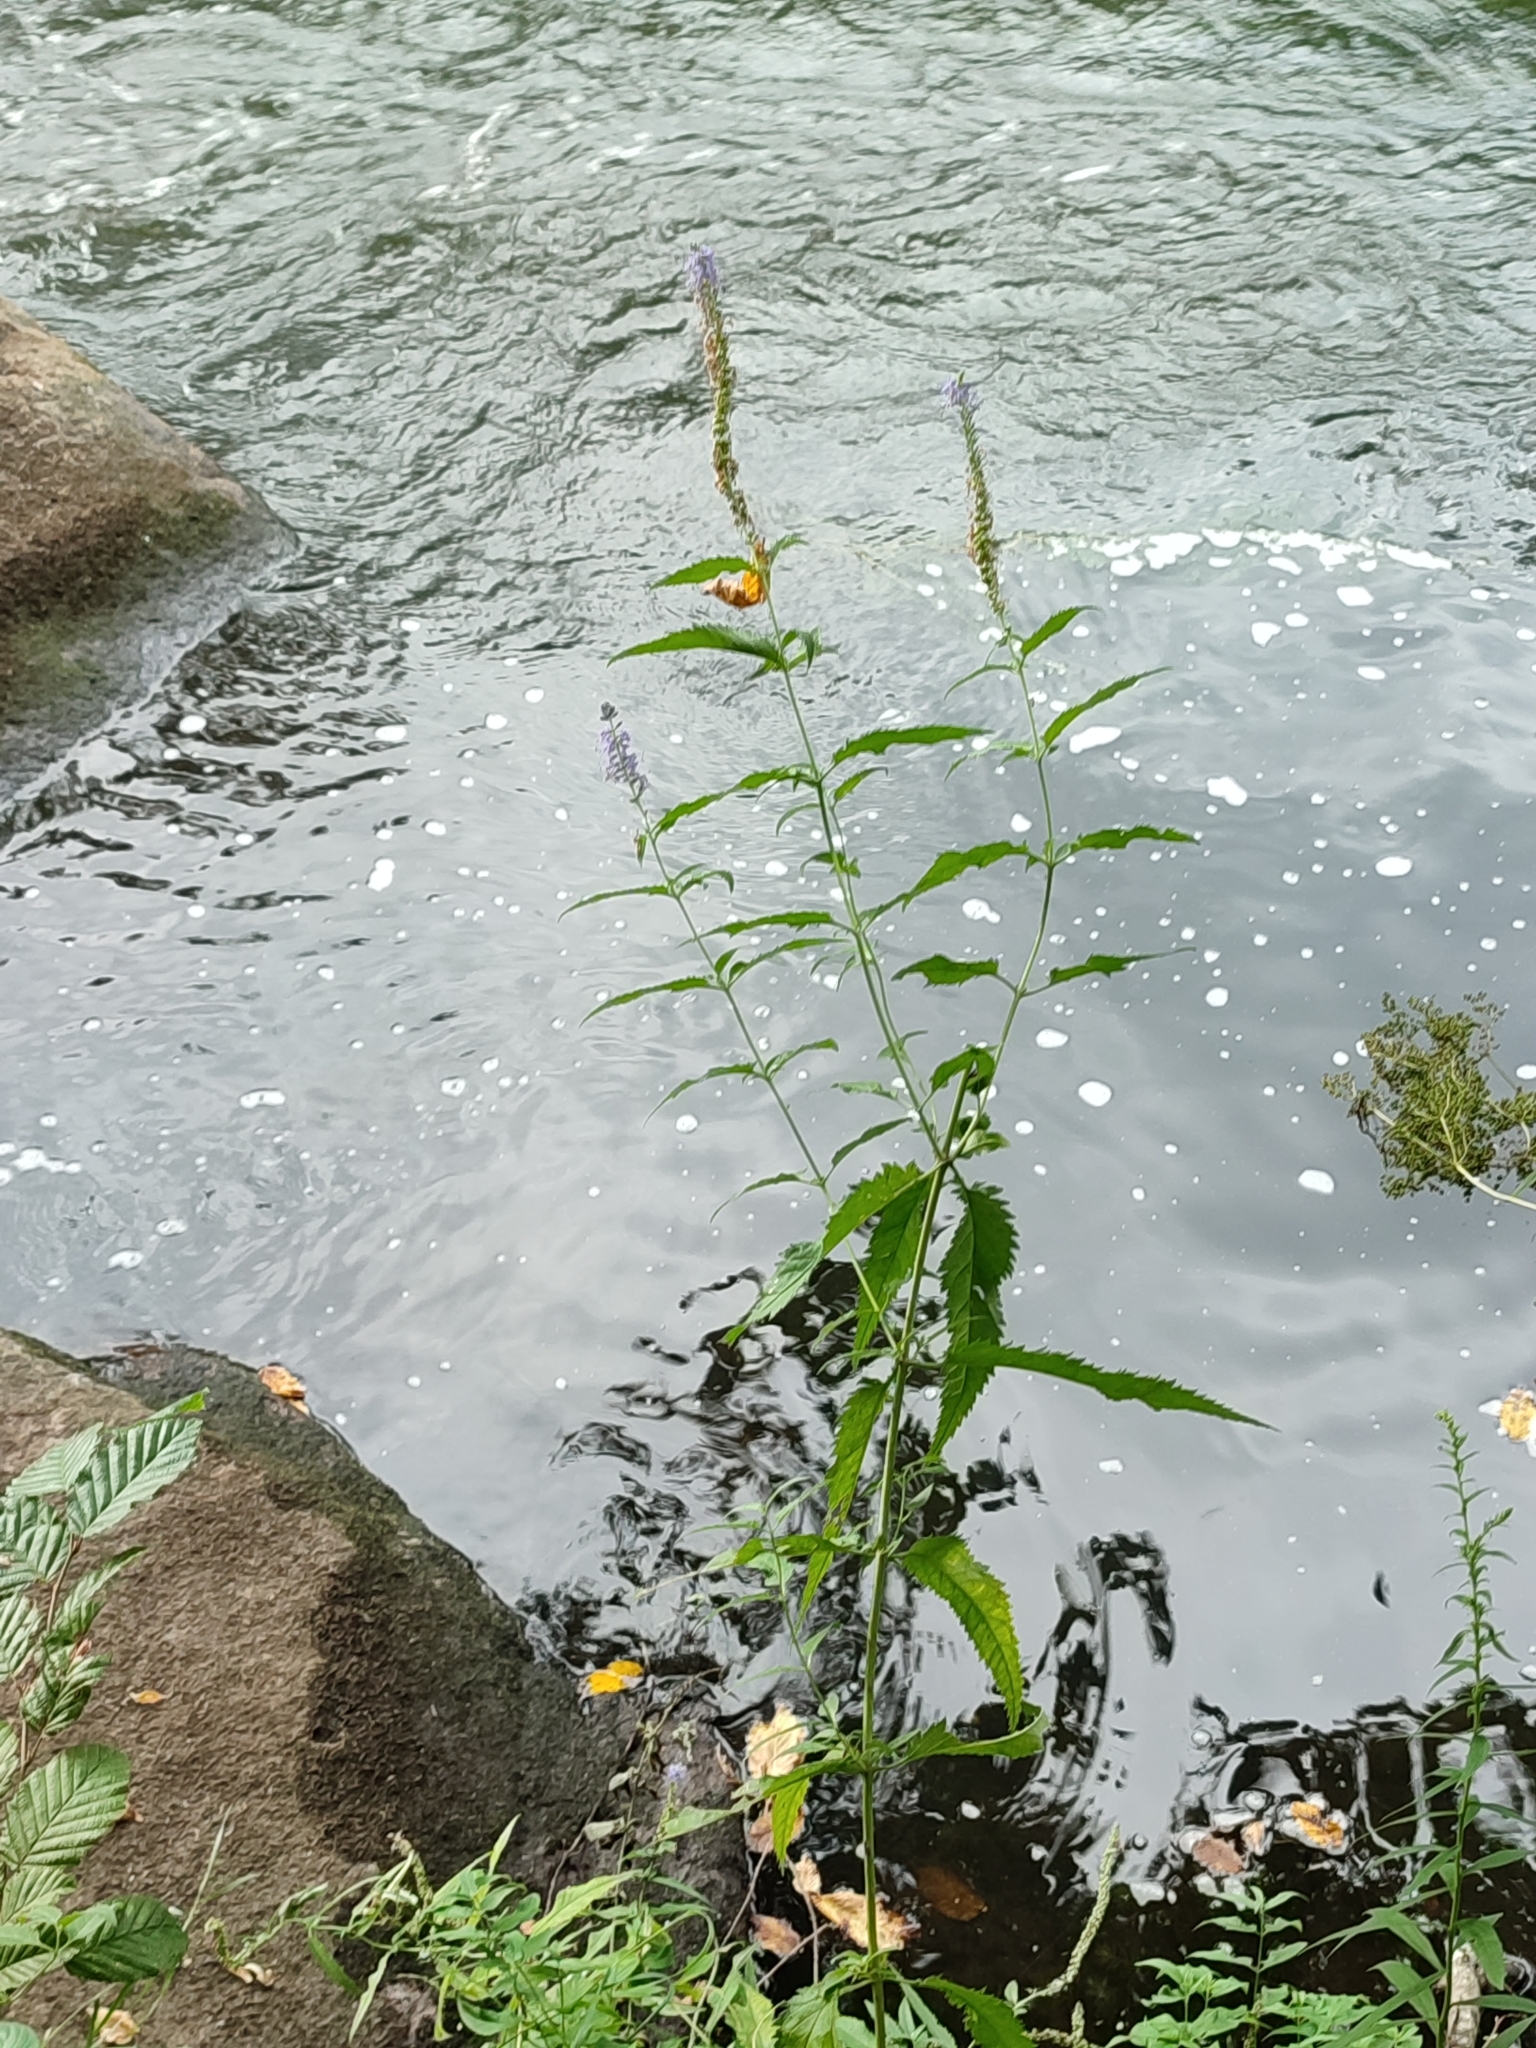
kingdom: Plantae
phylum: Tracheophyta
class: Magnoliopsida
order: Lamiales
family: Plantaginaceae
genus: Veronica
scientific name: Veronica longifolia
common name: Garden speedwell
